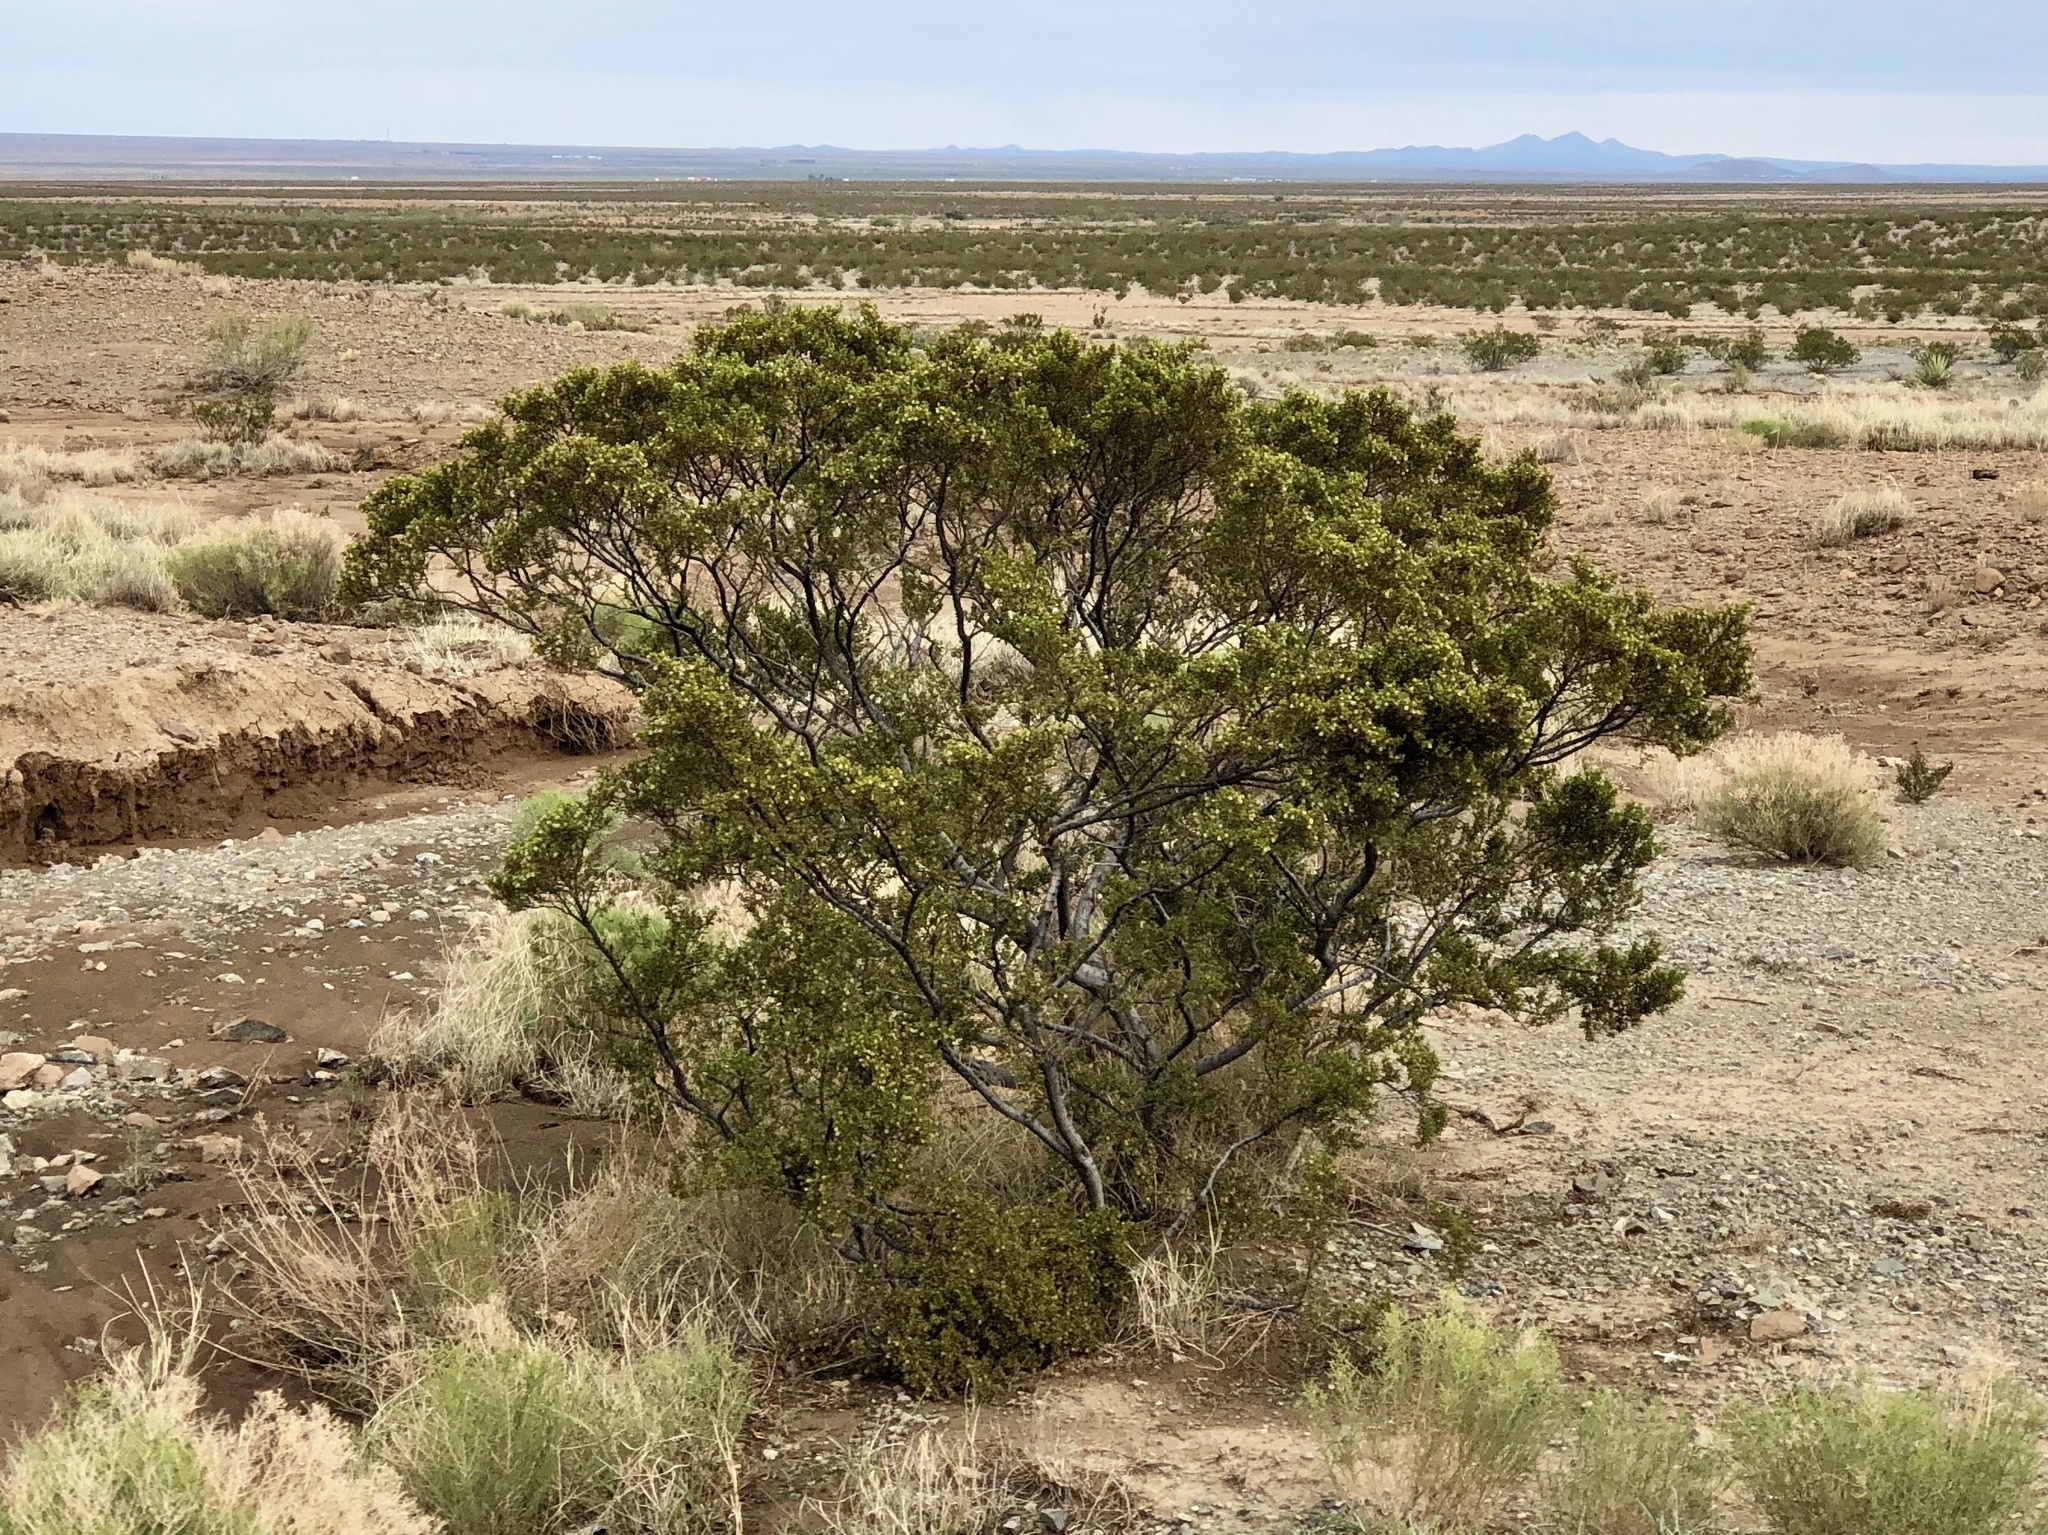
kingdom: Plantae
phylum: Tracheophyta
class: Magnoliopsida
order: Zygophyllales
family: Zygophyllaceae
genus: Larrea
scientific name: Larrea tridentata
